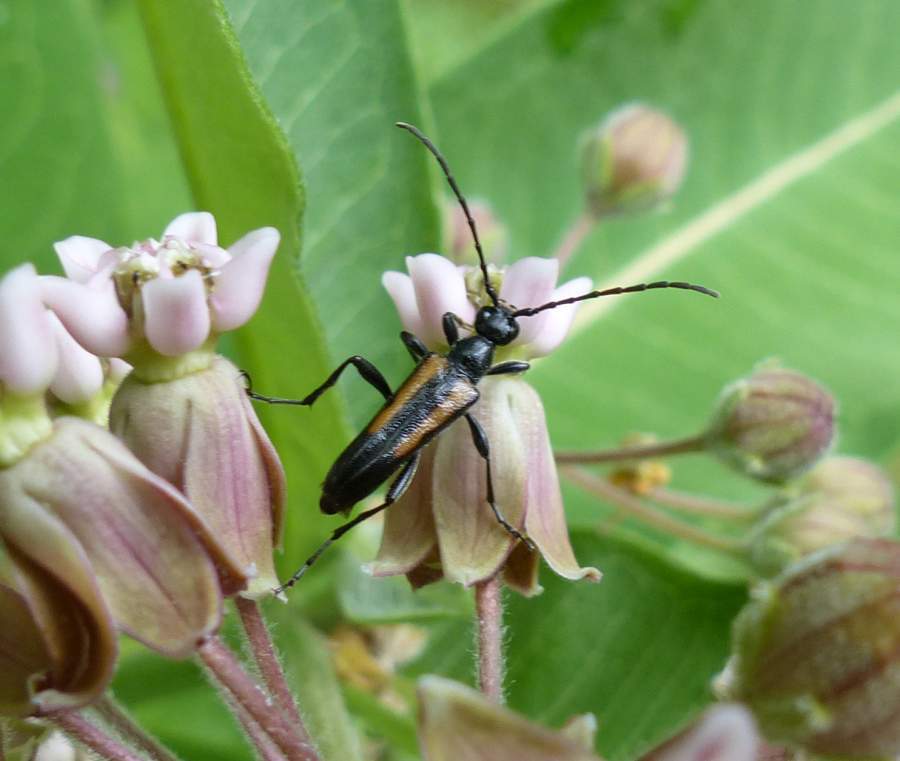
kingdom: Animalia
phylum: Arthropoda
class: Insecta
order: Coleoptera
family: Cerambycidae
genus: Strangalepta
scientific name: Strangalepta abbreviata
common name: Strangalepta flower longhorn beetle
